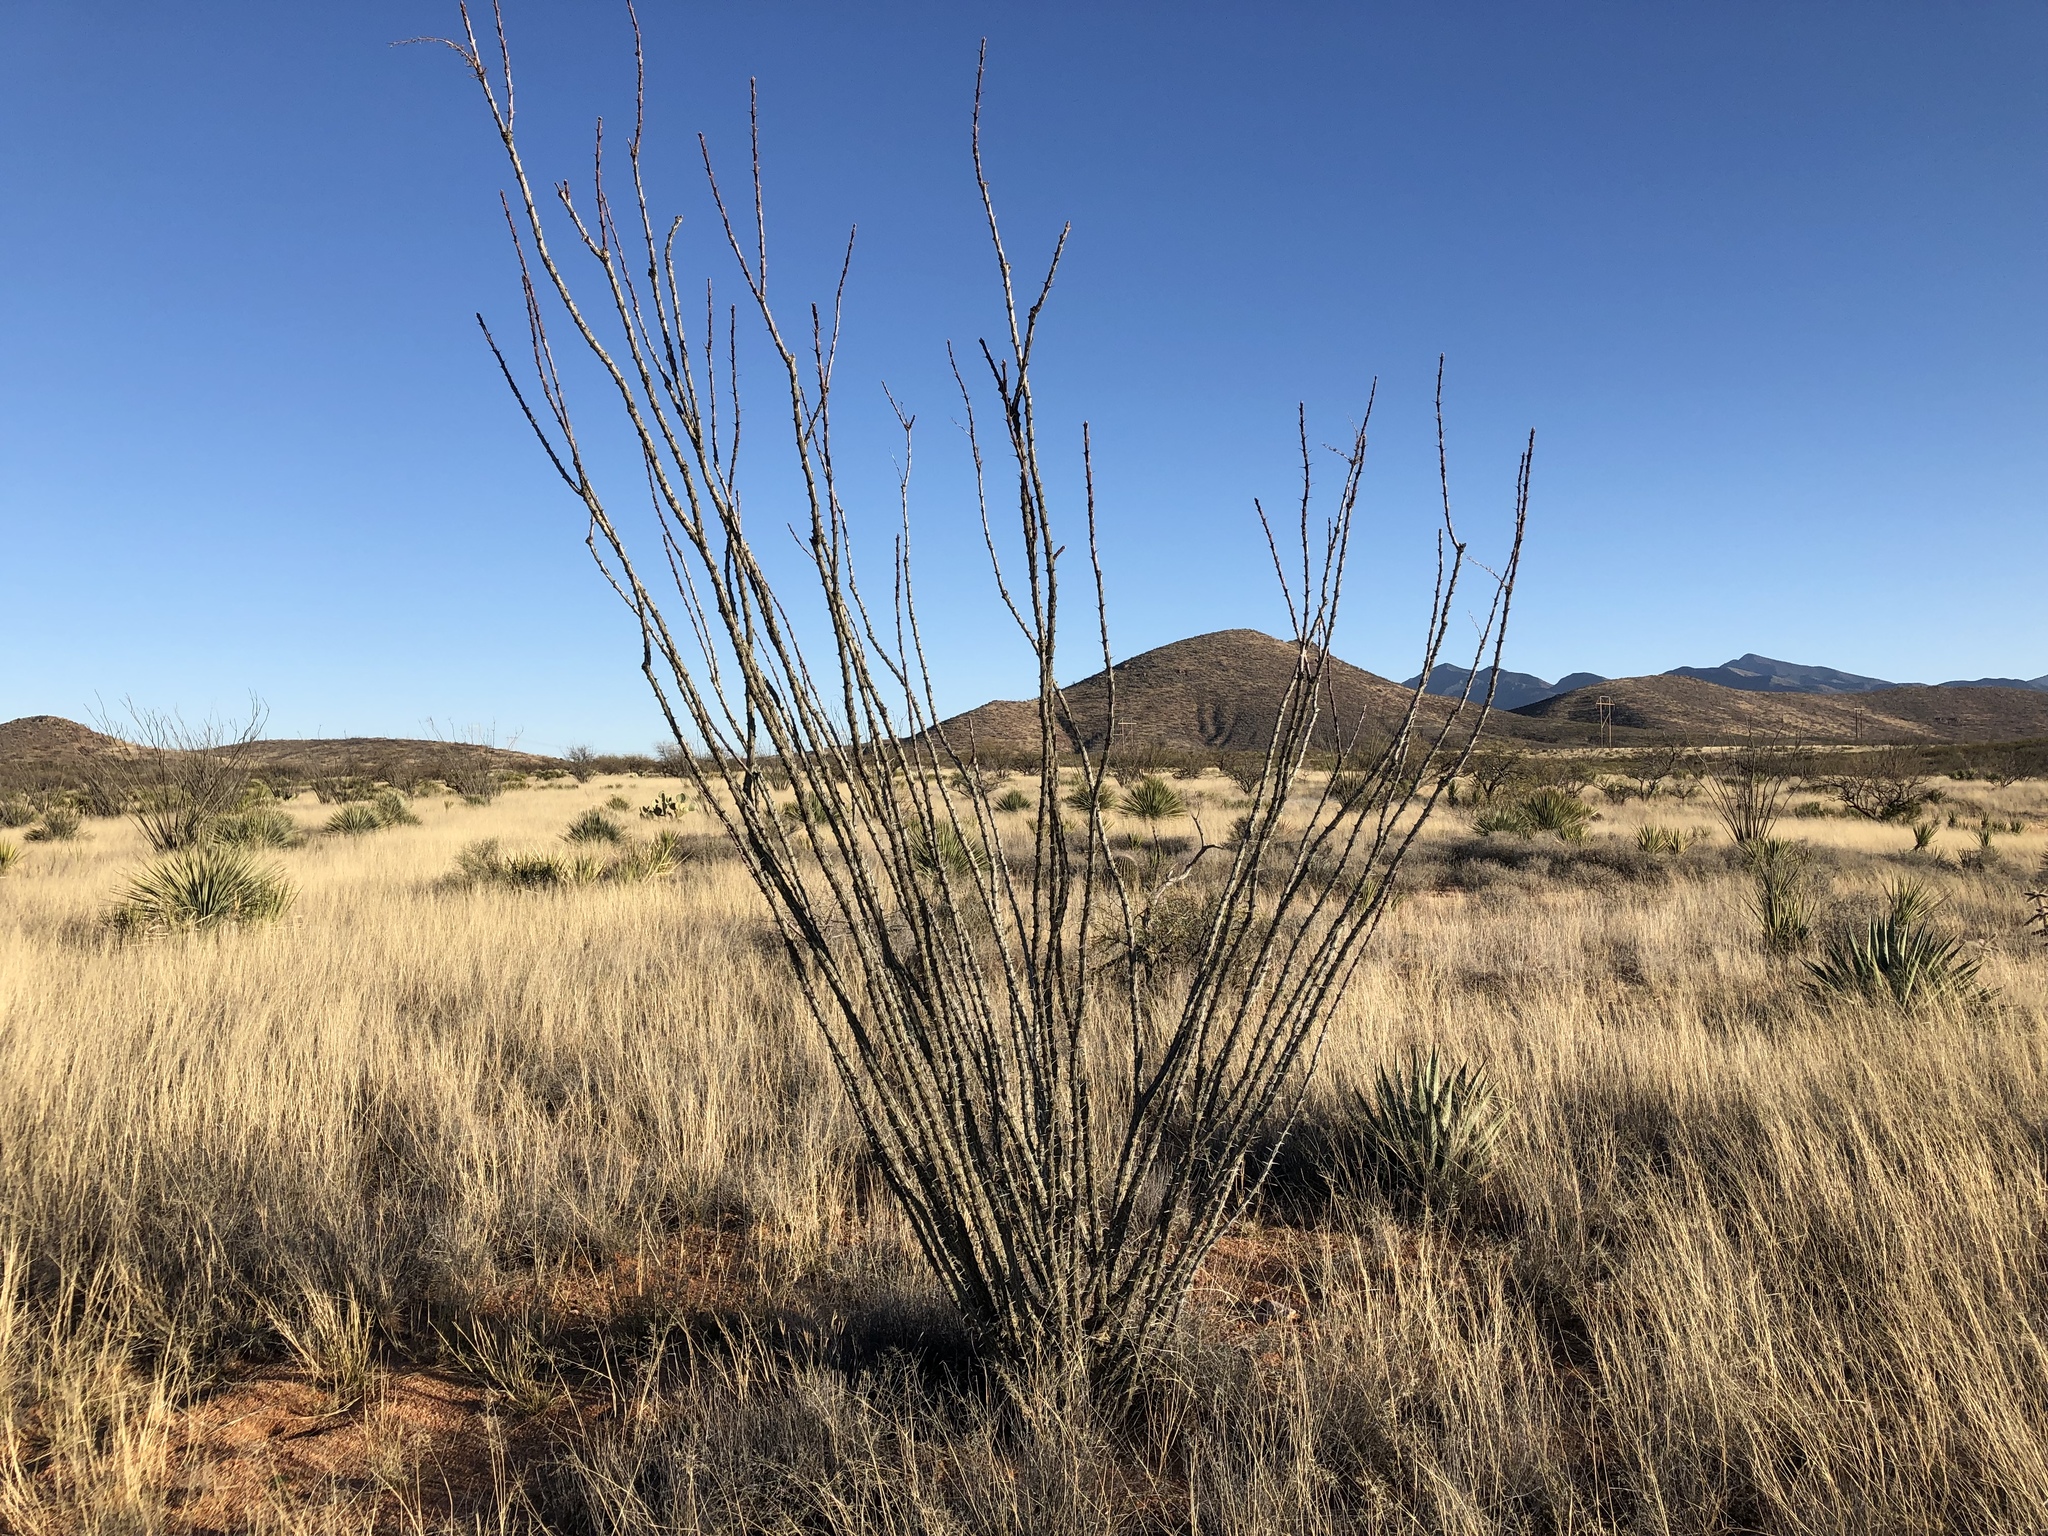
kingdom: Plantae
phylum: Tracheophyta
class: Magnoliopsida
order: Ericales
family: Fouquieriaceae
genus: Fouquieria
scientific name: Fouquieria splendens
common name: Vine-cactus
